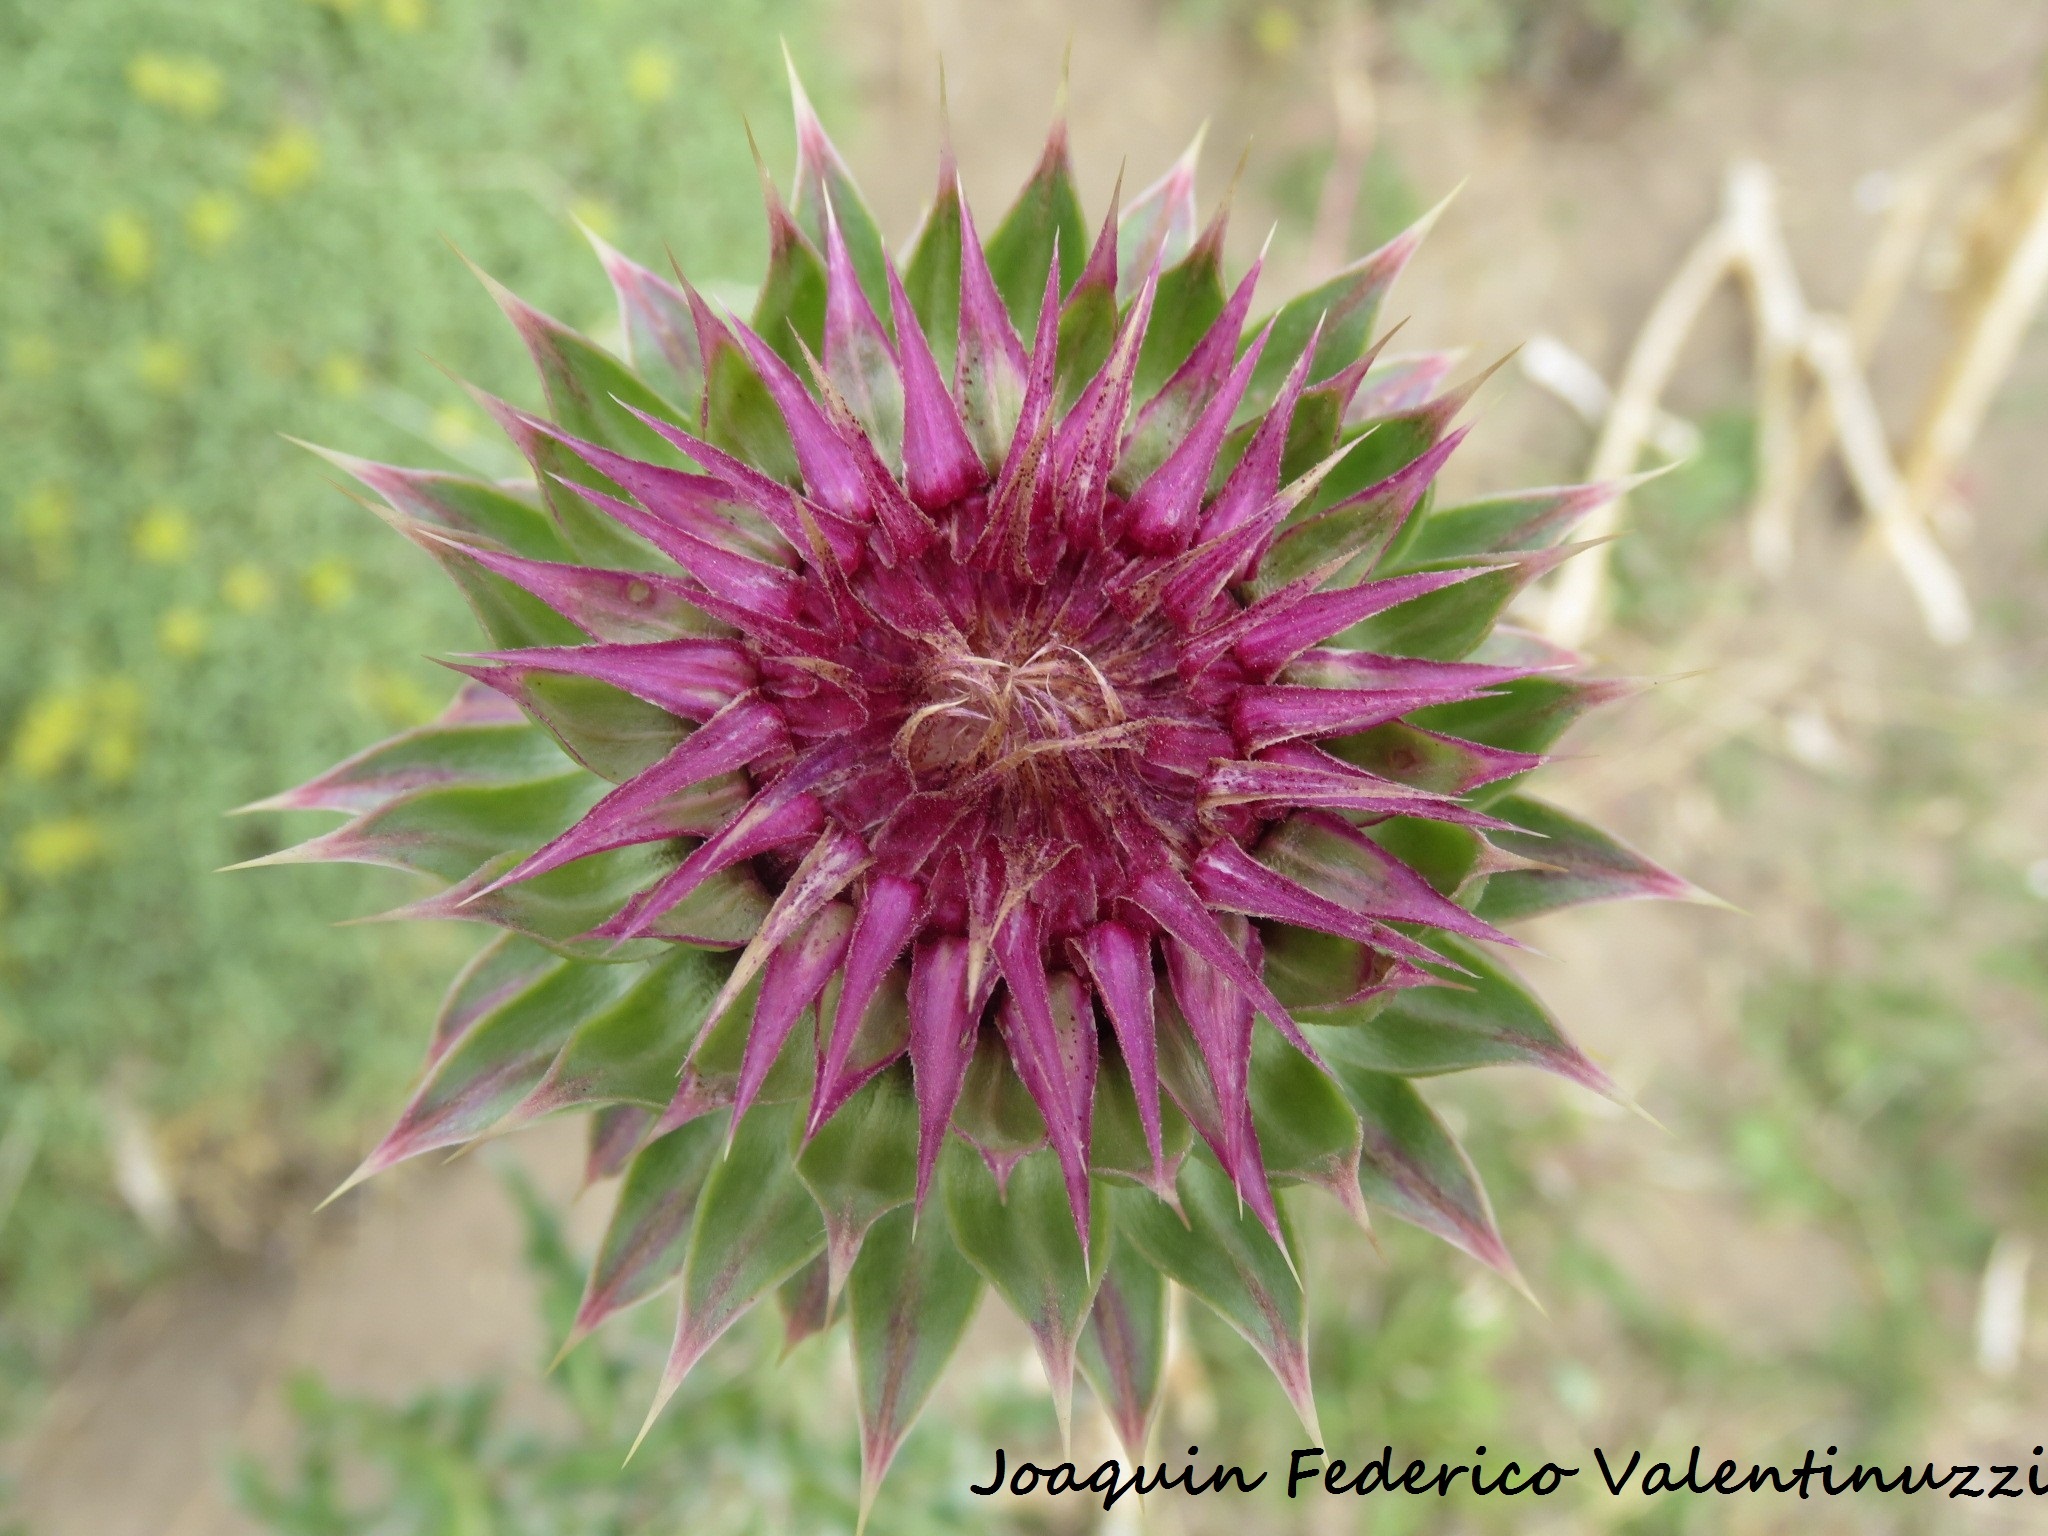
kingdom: Plantae
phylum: Tracheophyta
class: Magnoliopsida
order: Asterales
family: Asteraceae
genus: Carduus
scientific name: Carduus nutans
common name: Musk thistle
